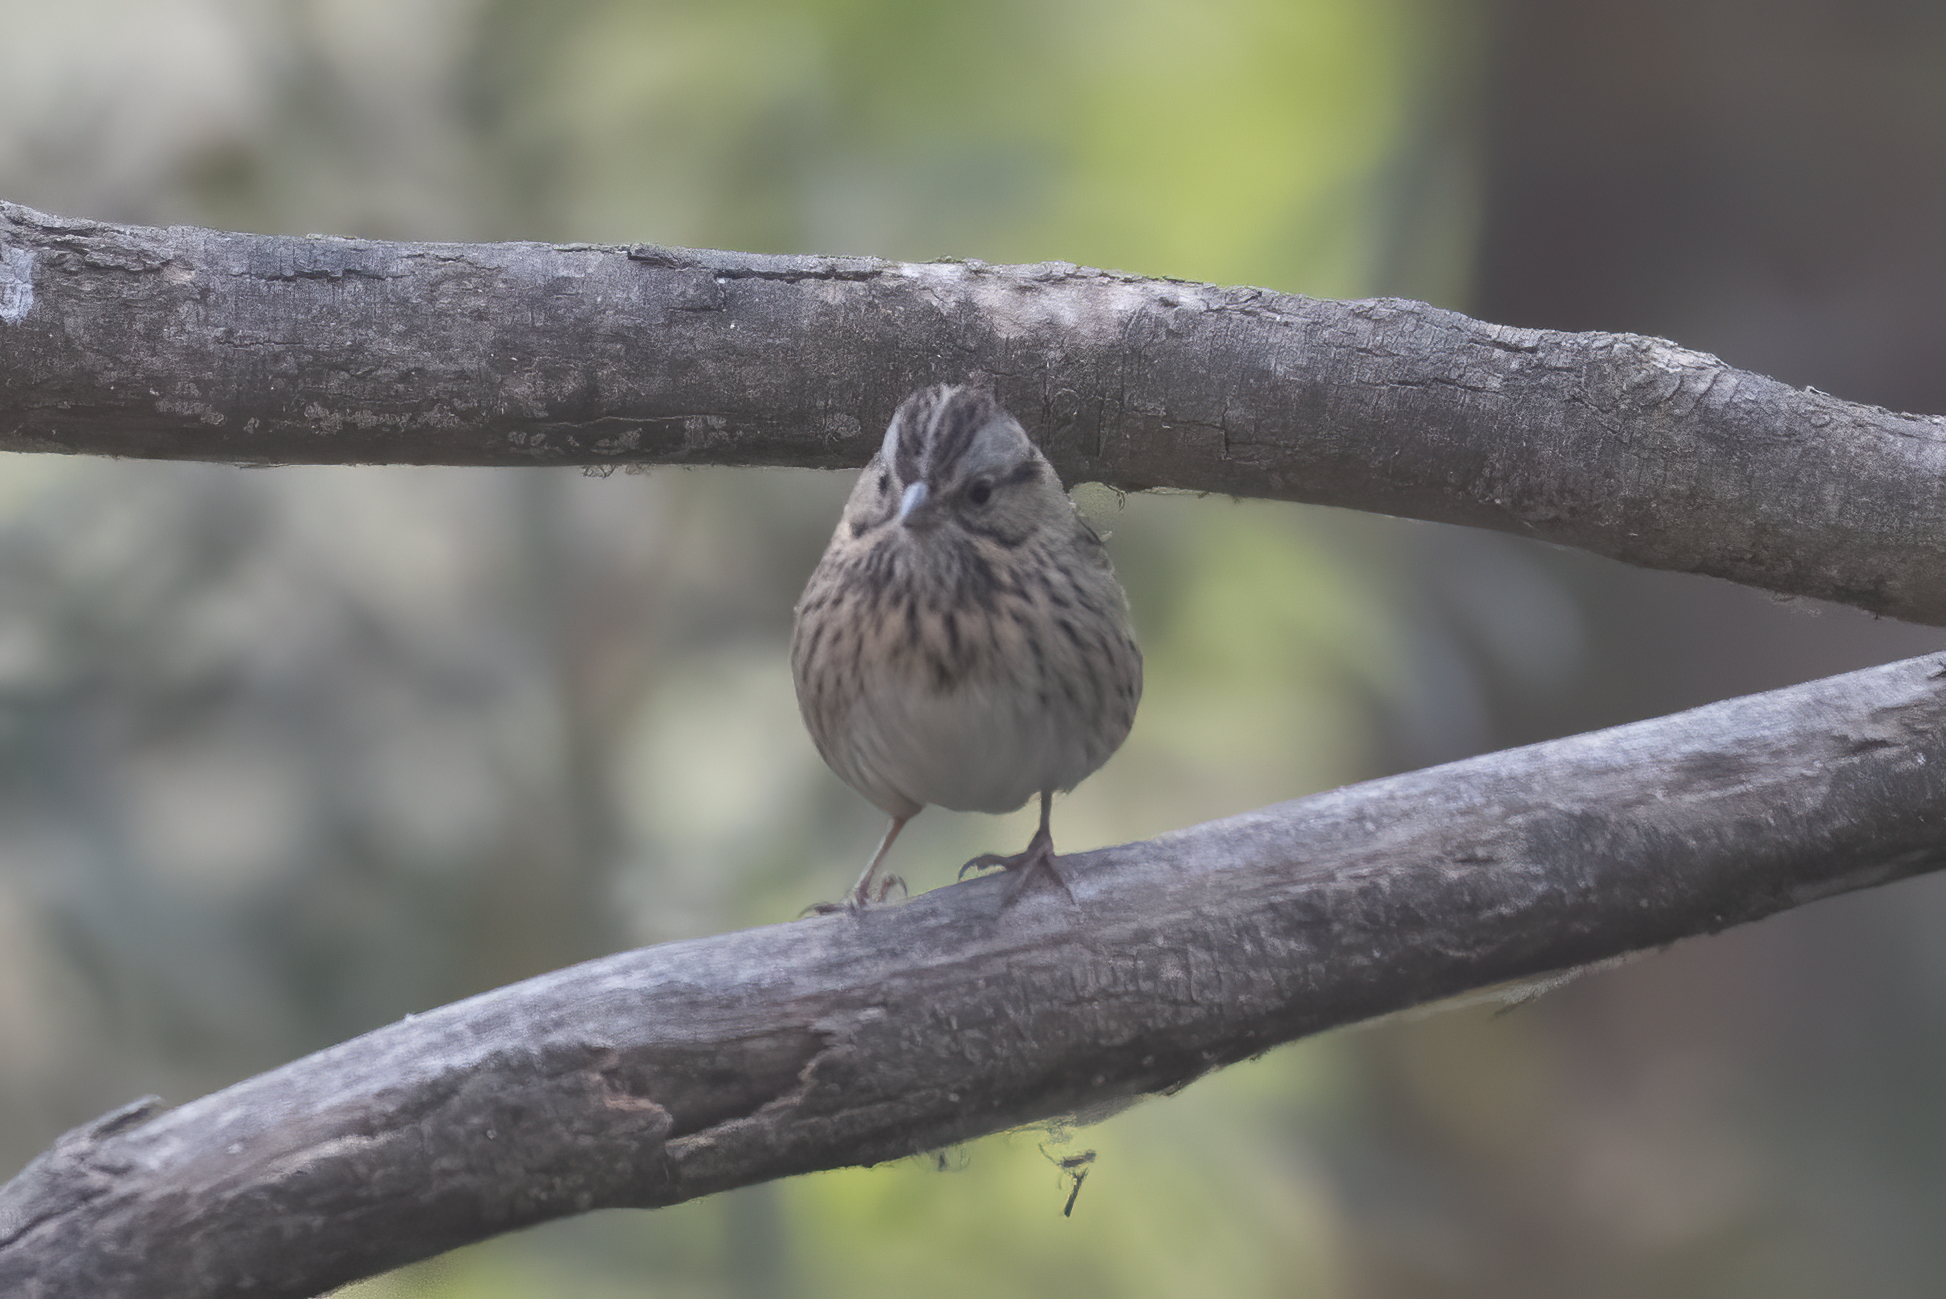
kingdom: Animalia
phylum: Chordata
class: Aves
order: Passeriformes
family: Passerellidae
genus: Melospiza
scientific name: Melospiza lincolnii
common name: Lincoln's sparrow
